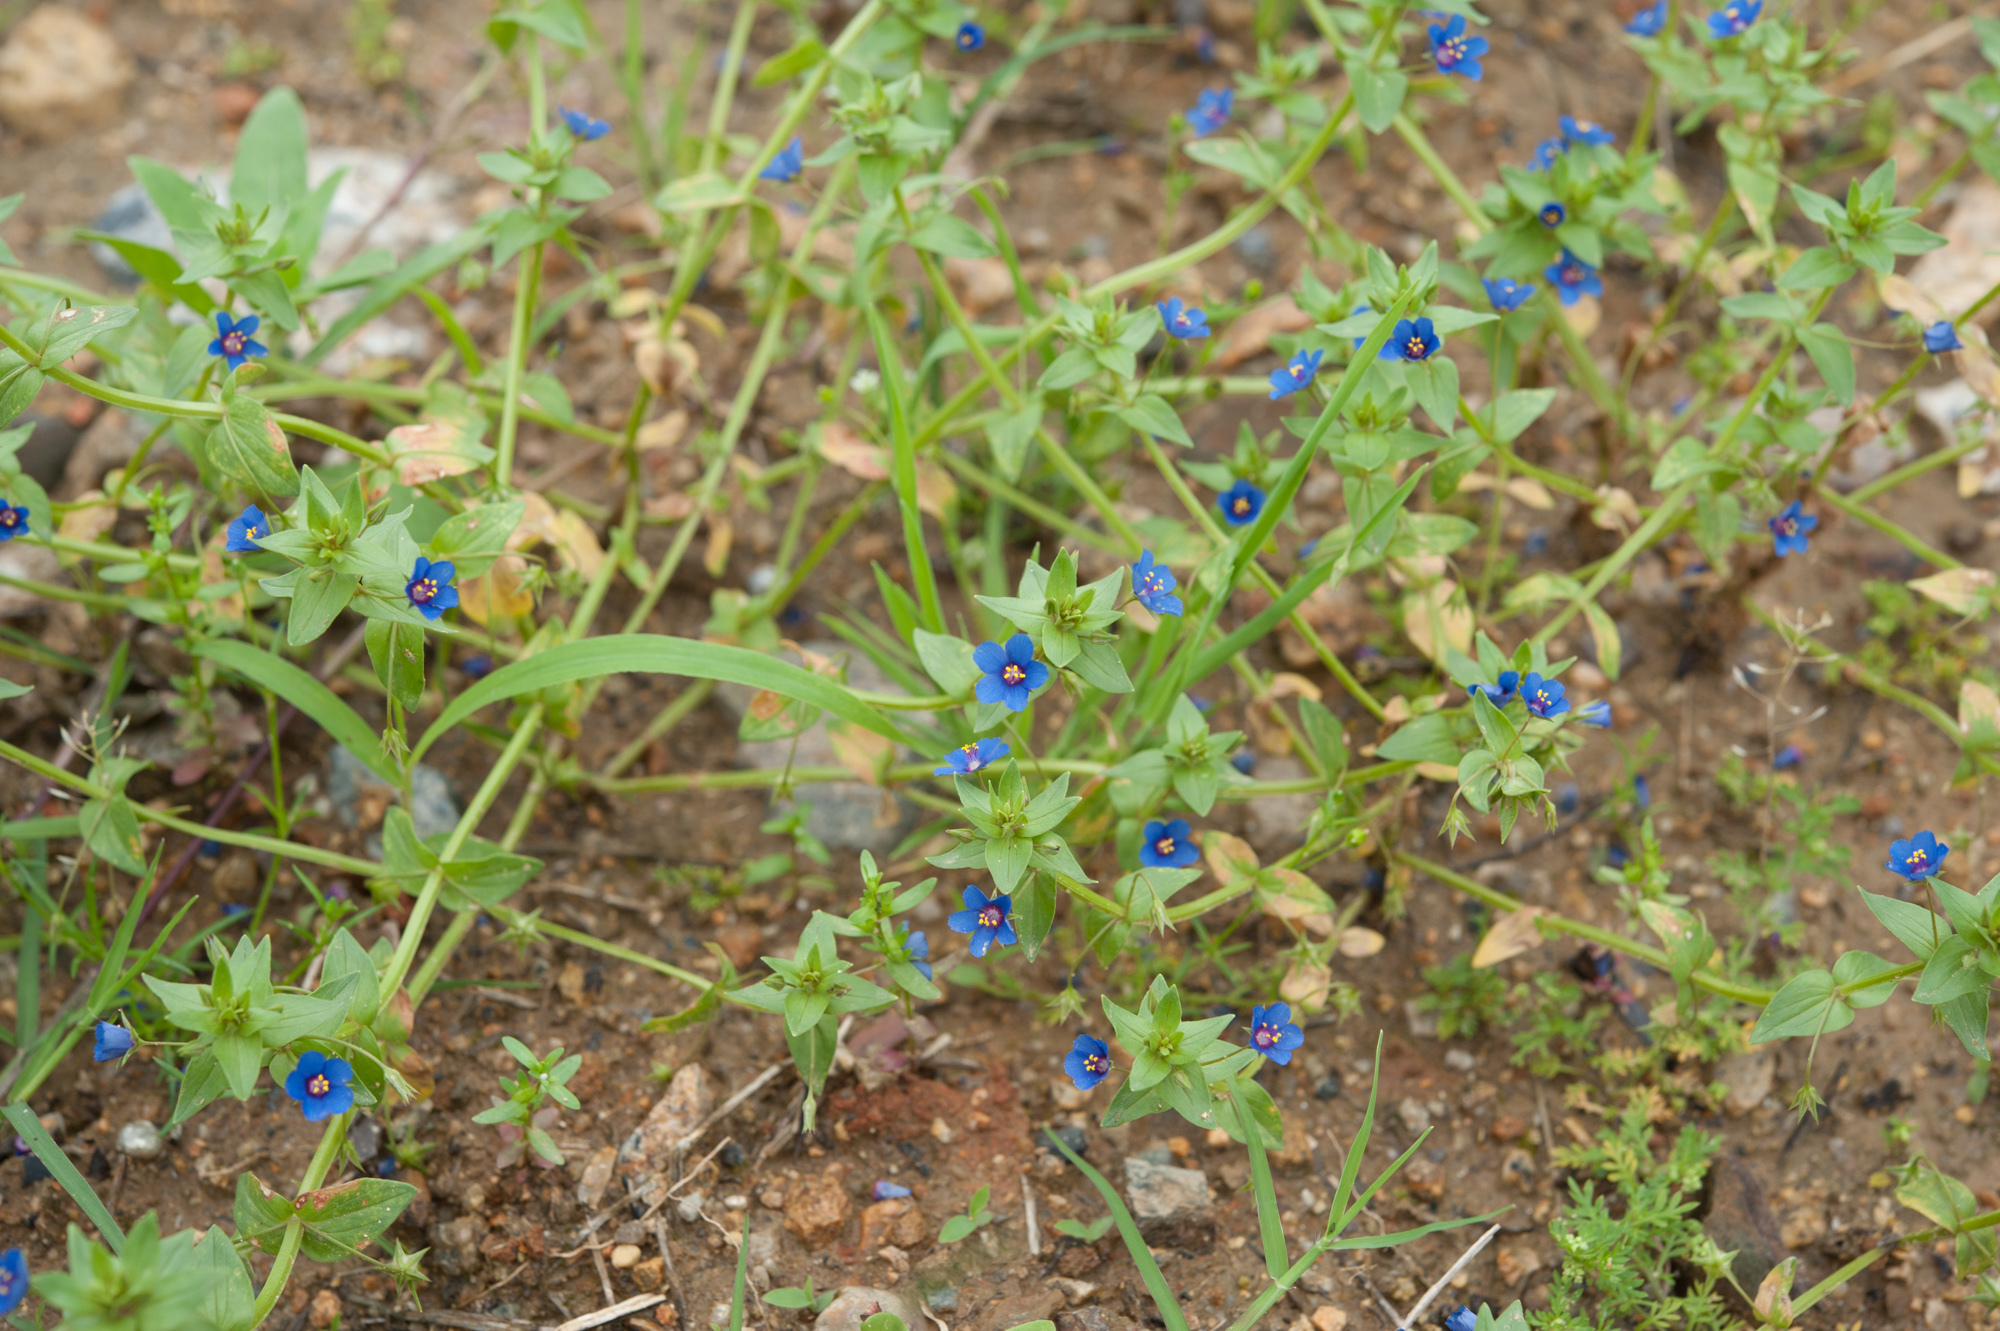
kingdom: Plantae
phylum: Tracheophyta
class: Magnoliopsida
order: Ericales
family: Primulaceae
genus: Lysimachia
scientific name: Lysimachia loeflingii
